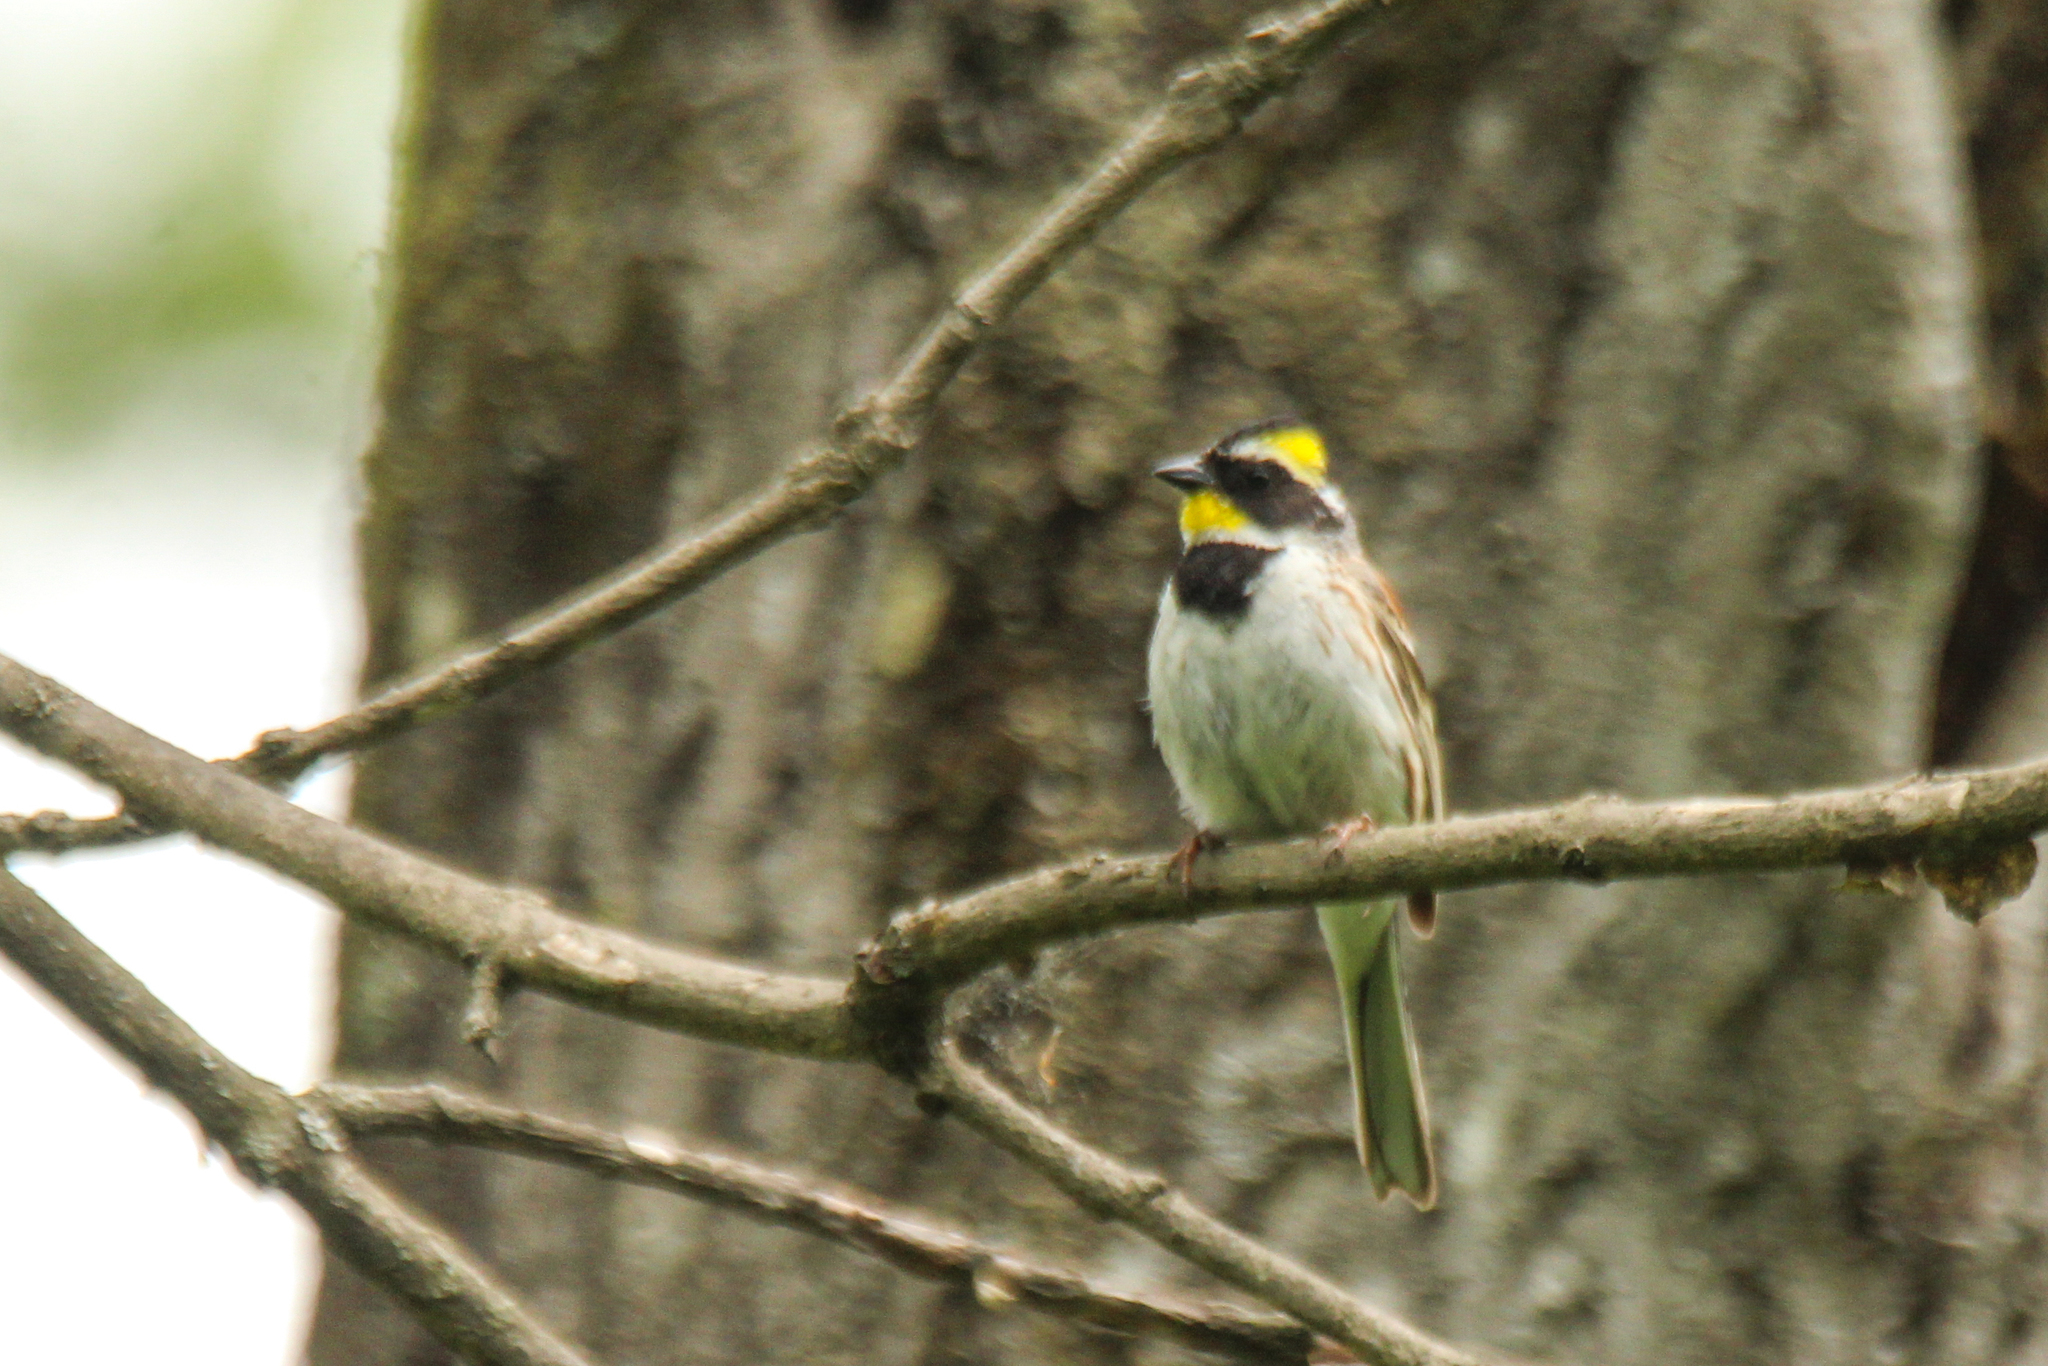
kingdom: Animalia
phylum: Chordata
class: Aves
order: Passeriformes
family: Emberizidae
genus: Emberiza
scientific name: Emberiza elegans
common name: Yellow-throated bunting
